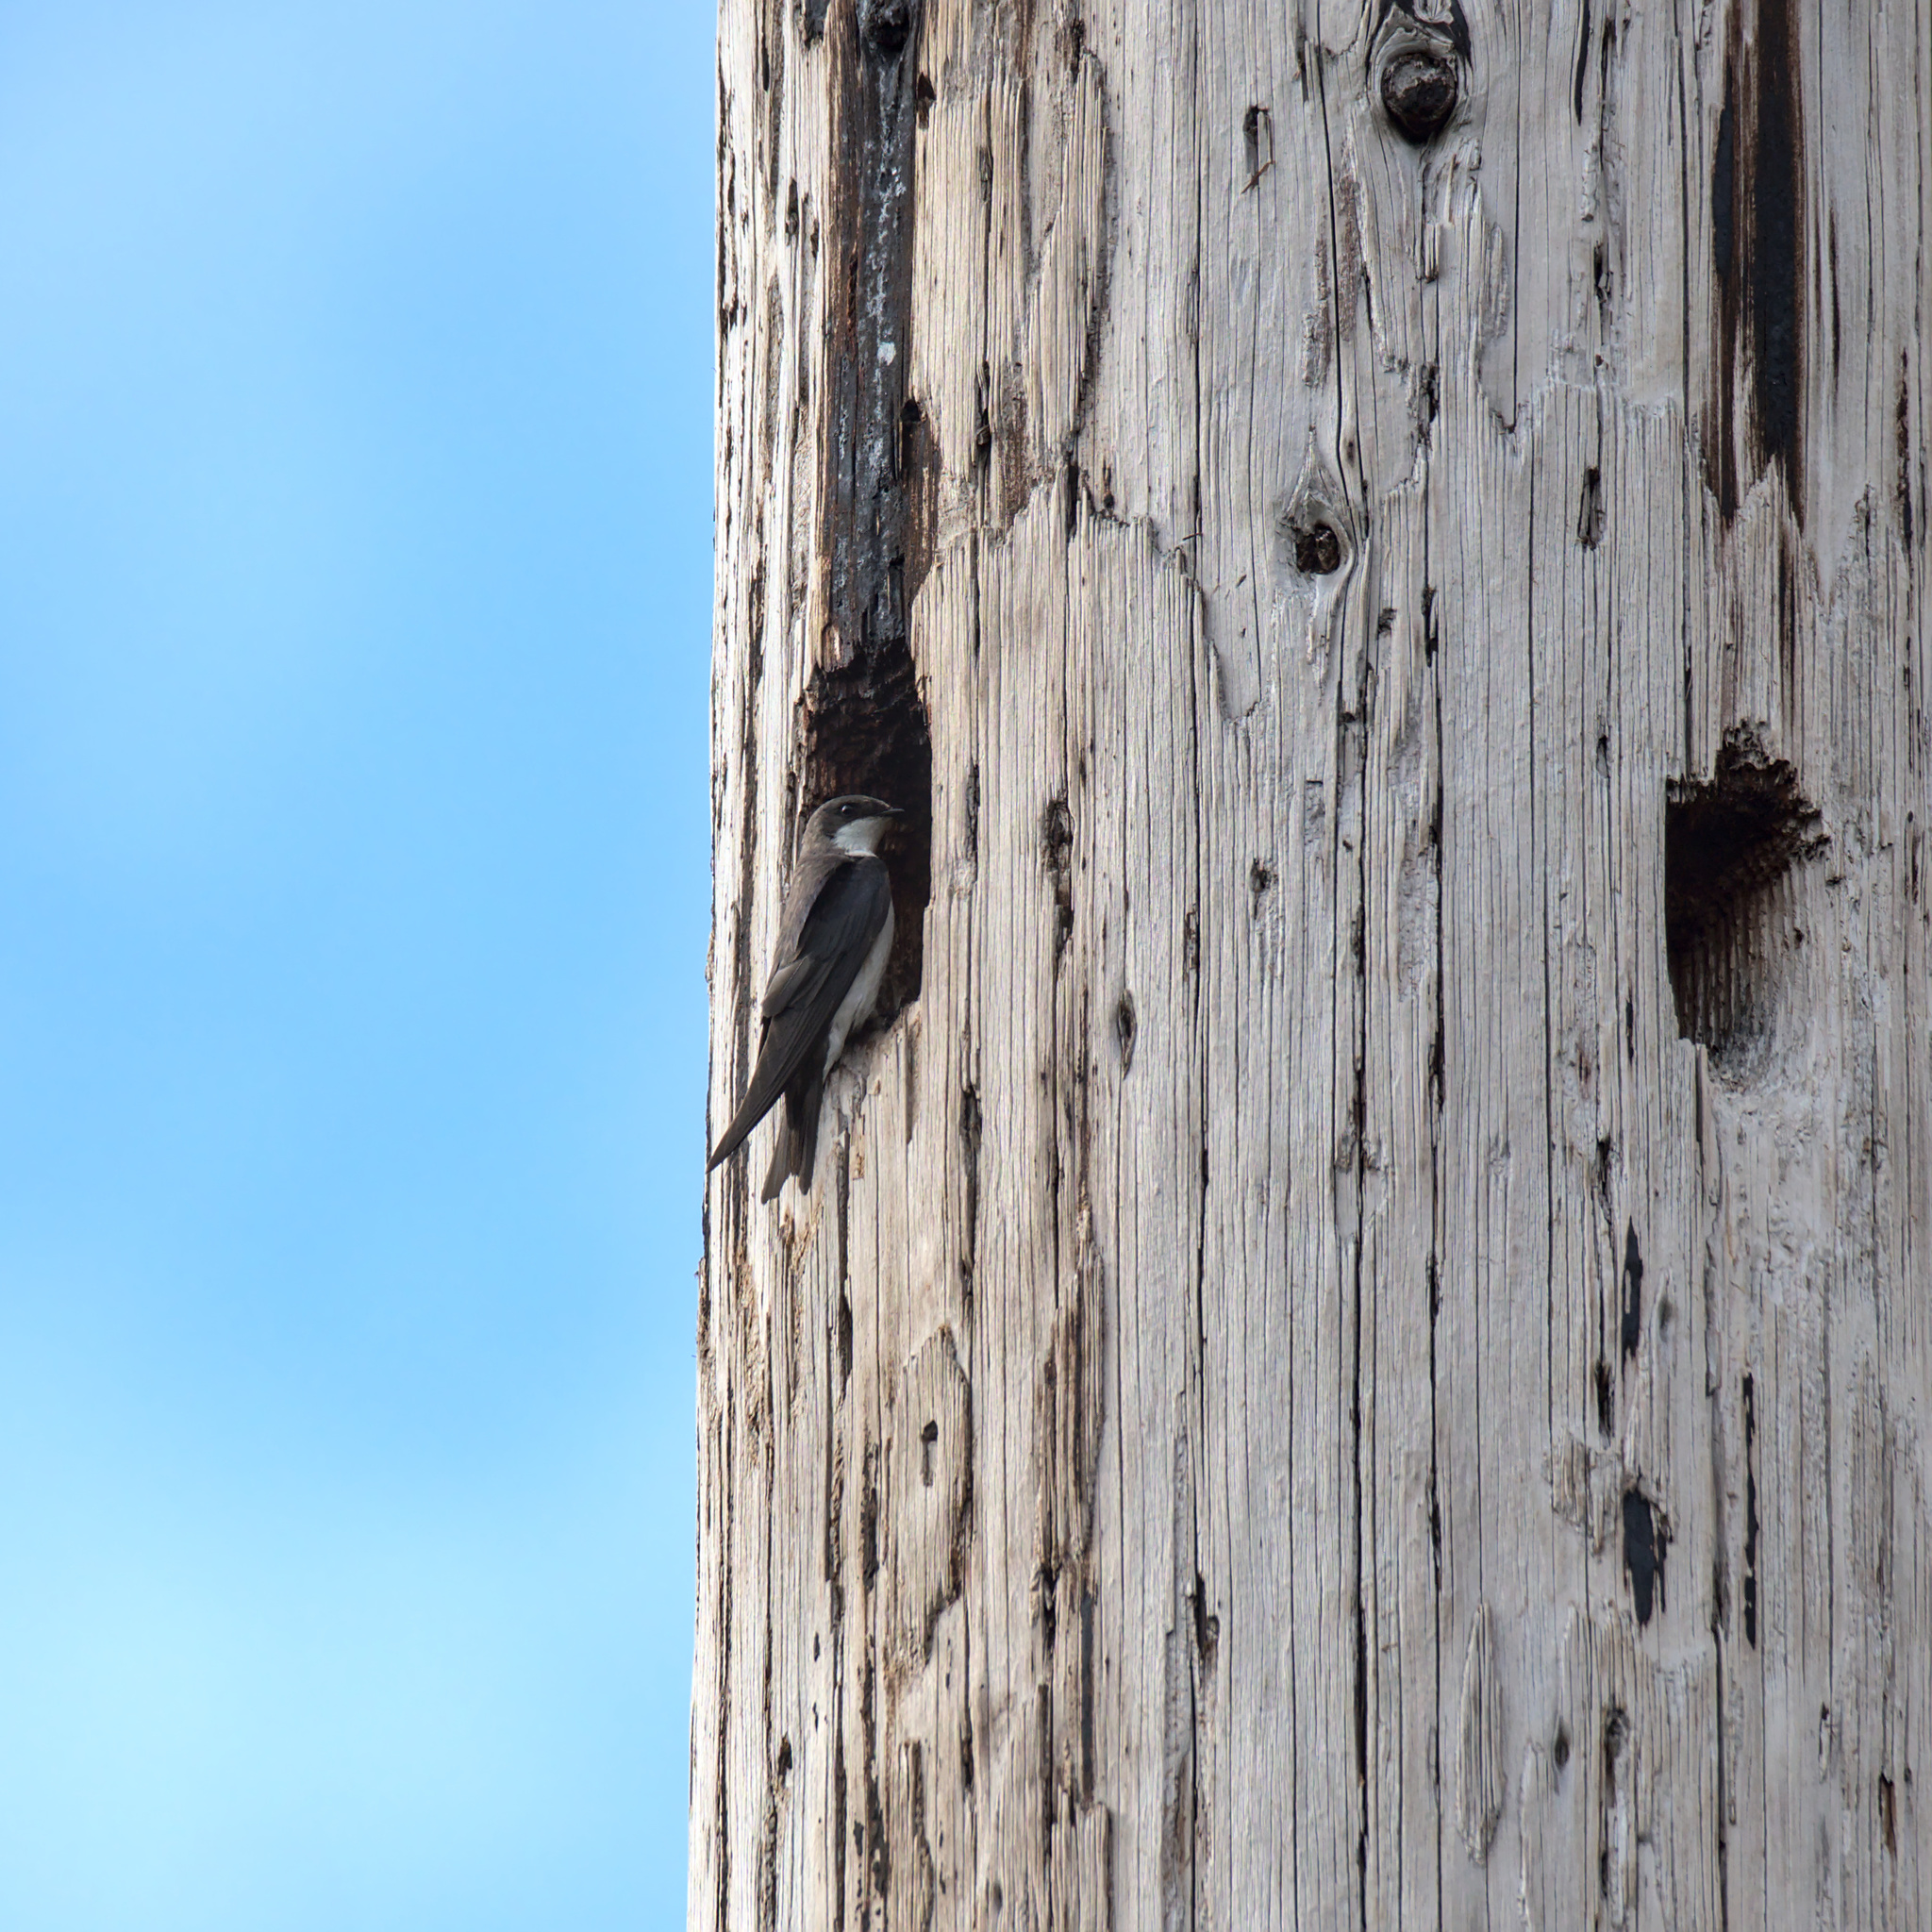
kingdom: Animalia
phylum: Chordata
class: Aves
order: Passeriformes
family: Hirundinidae
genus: Tachycineta
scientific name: Tachycineta bicolor
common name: Tree swallow
